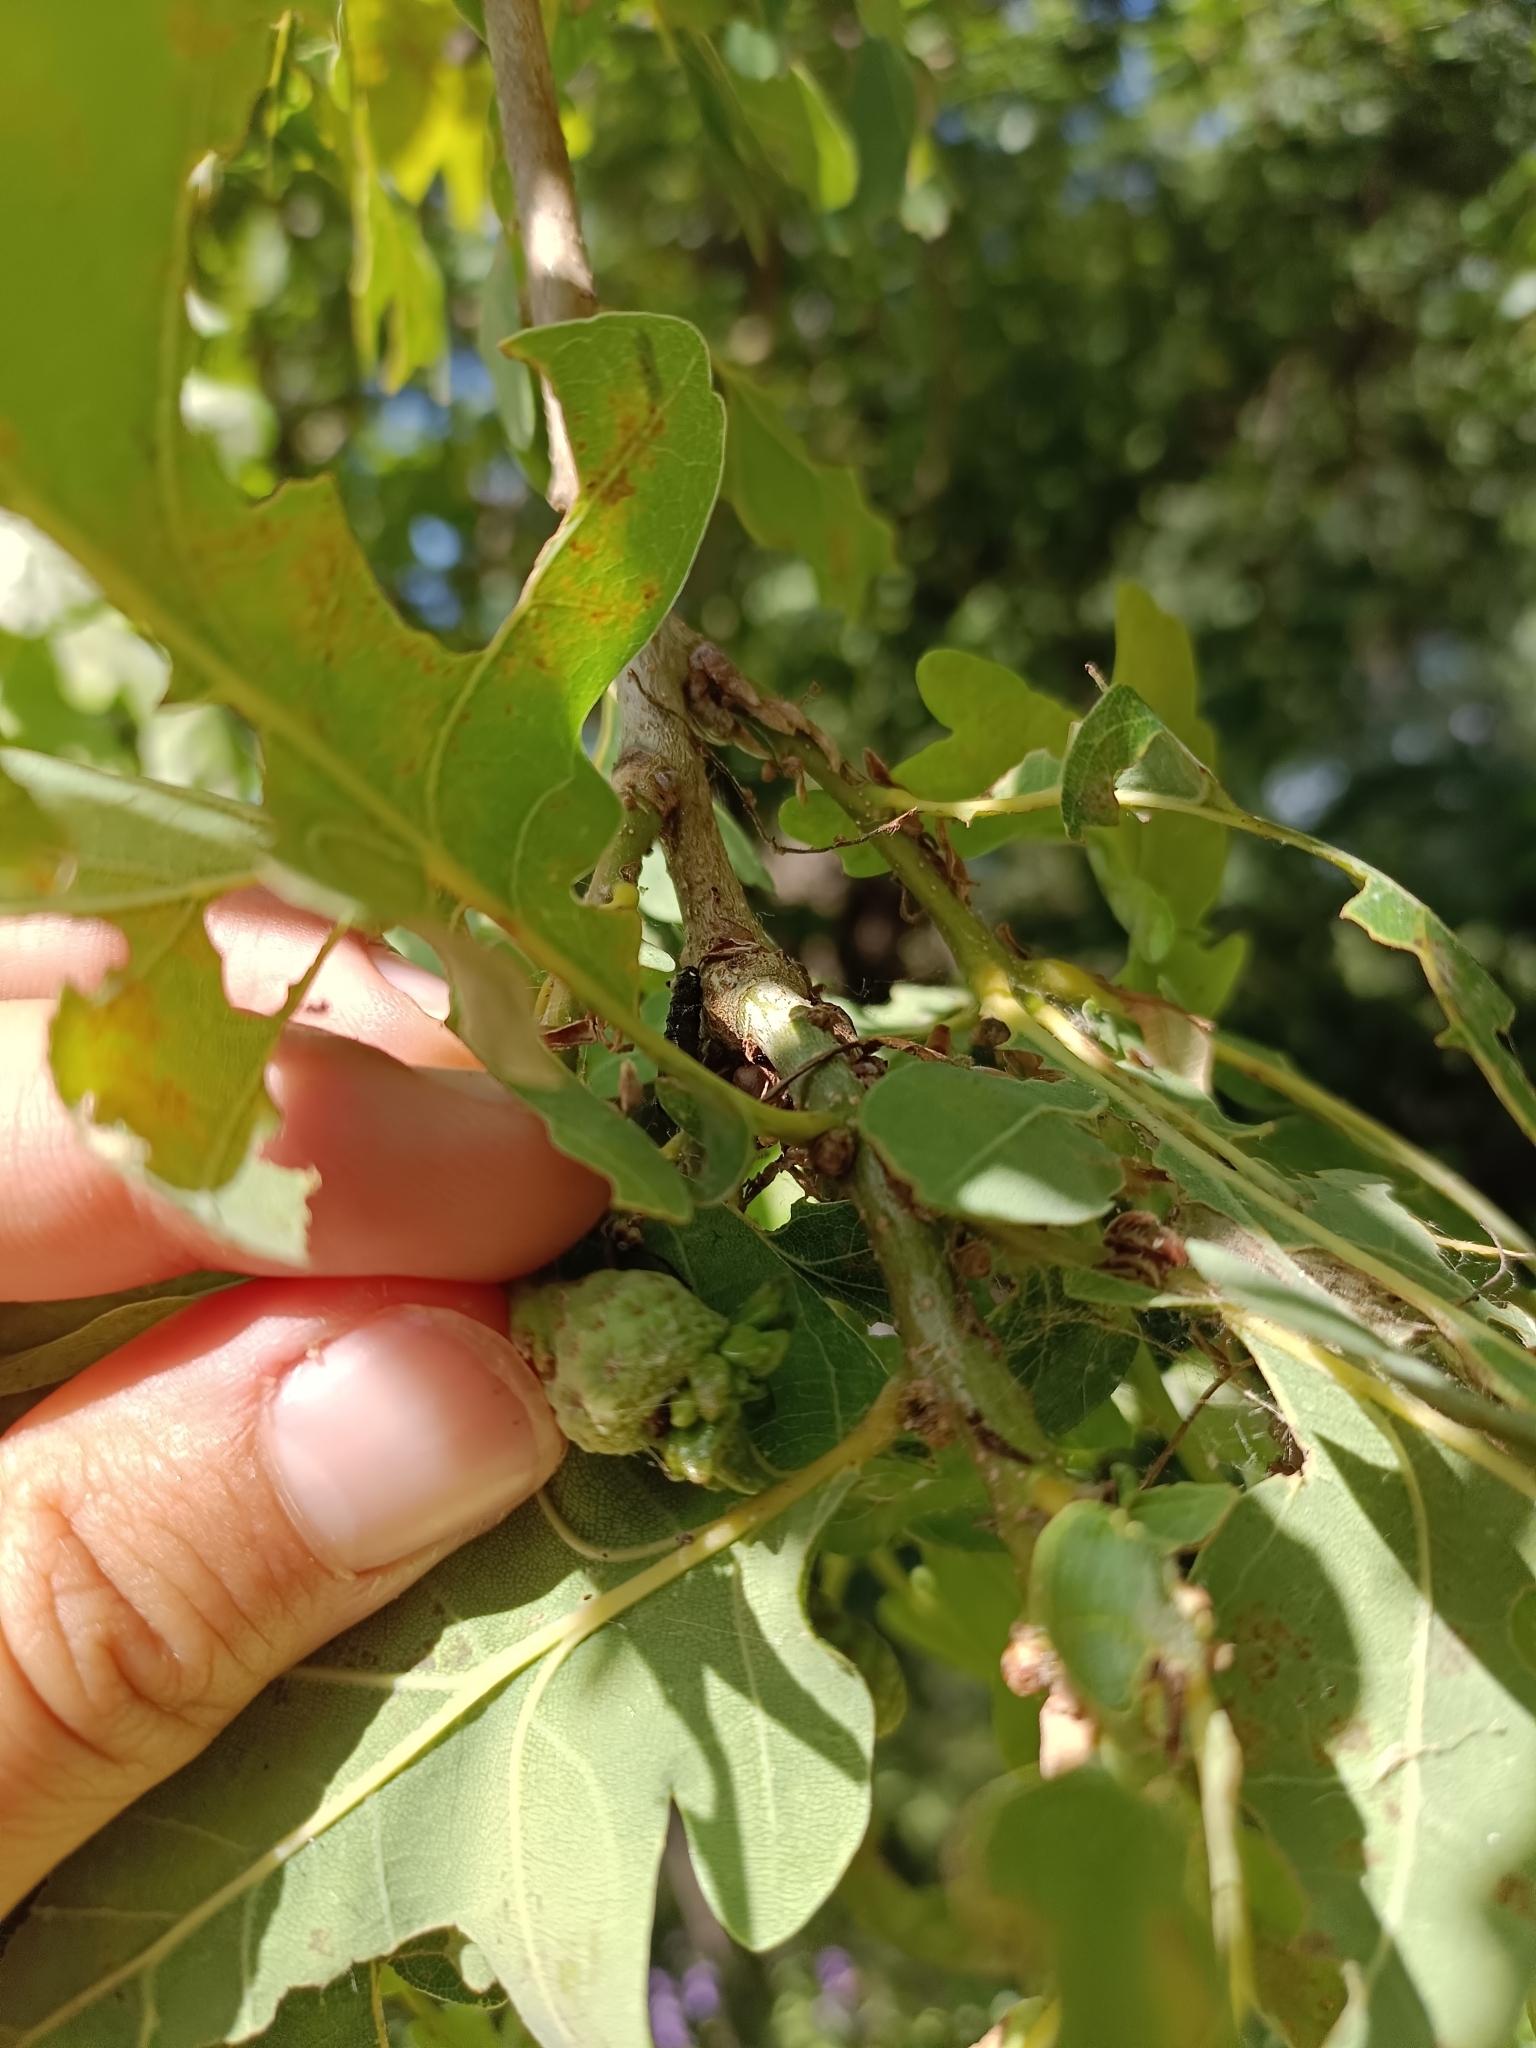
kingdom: Animalia
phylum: Arthropoda
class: Insecta
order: Hymenoptera
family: Cynipidae
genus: Andricus
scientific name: Andricus quercuscalicis
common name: Knopper gall
